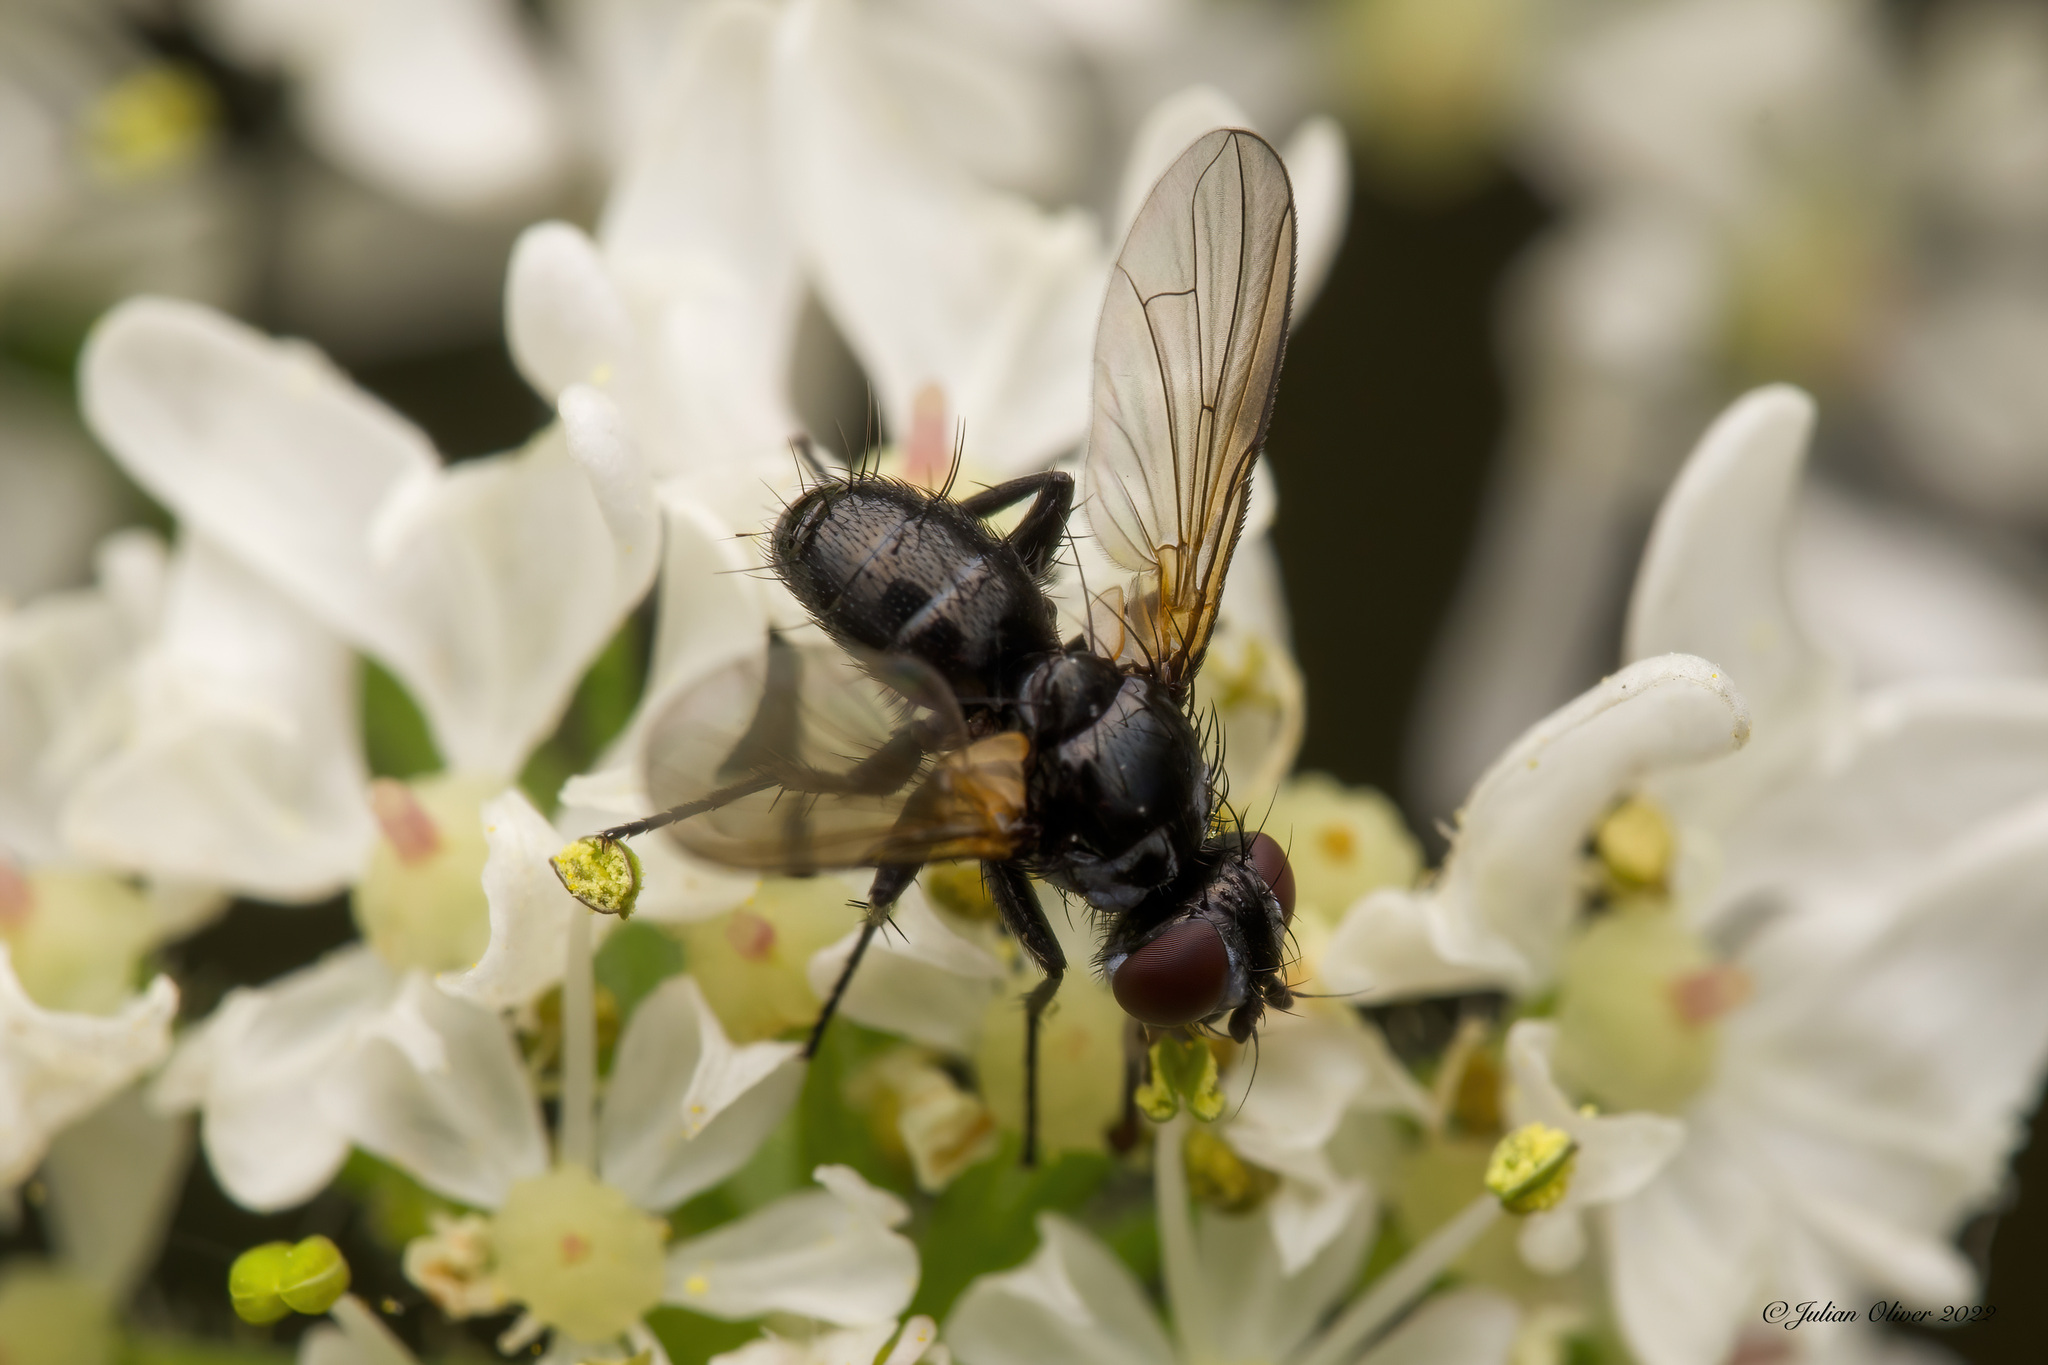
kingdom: Animalia
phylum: Arthropoda
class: Insecta
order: Diptera
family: Tachinidae
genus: Phania
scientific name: Phania funesta
